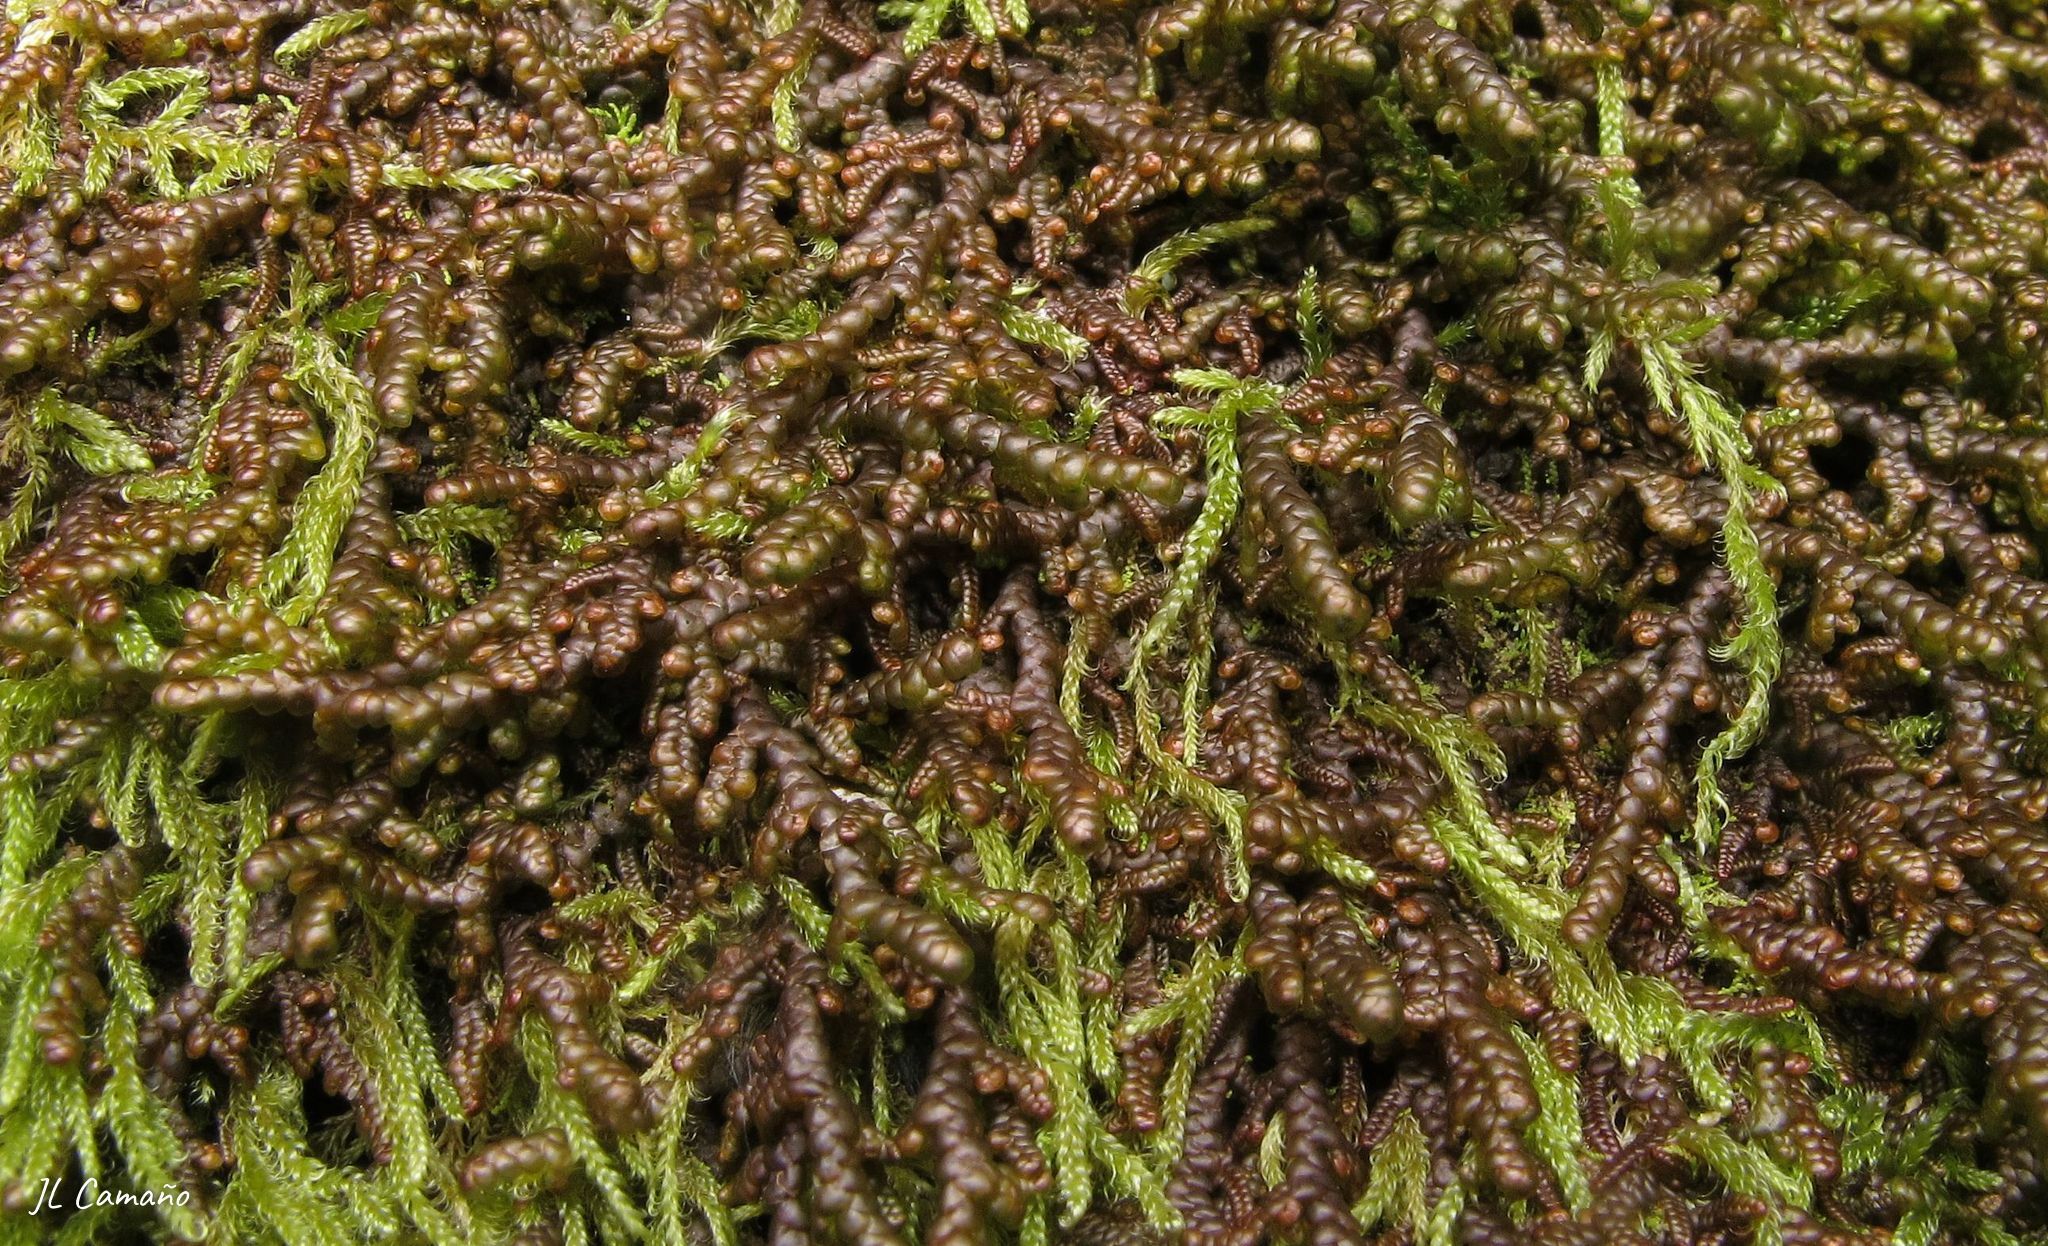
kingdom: Plantae
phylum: Marchantiophyta
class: Jungermanniopsida
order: Porellales
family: Frullaniaceae
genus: Frullania
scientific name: Frullania tamarisci
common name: Tamarisk scalewort
